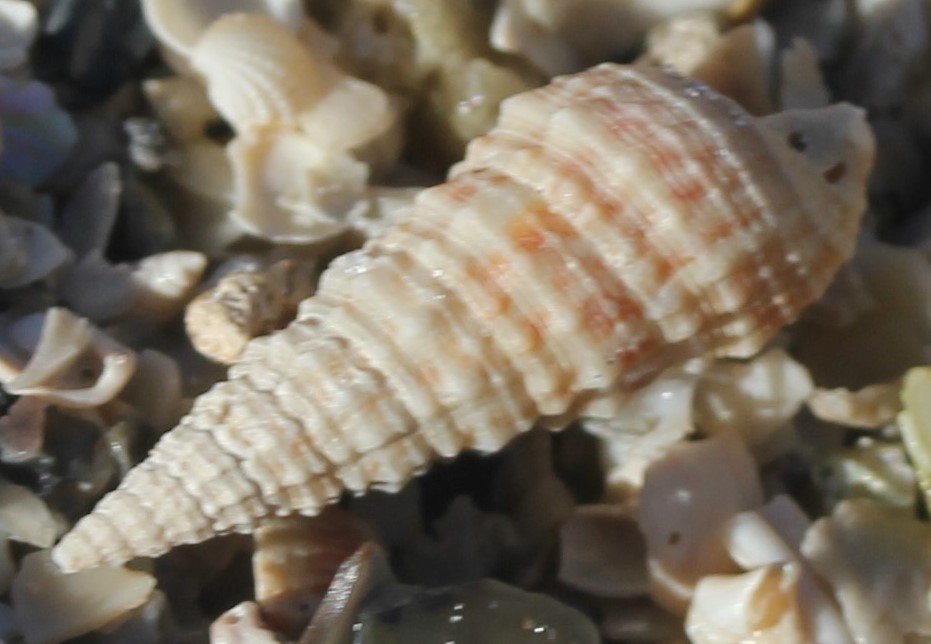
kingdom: Animalia
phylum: Mollusca
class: Gastropoda
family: Cerithiidae
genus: Cerithium
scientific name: Cerithium atratum
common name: Dark cerith
